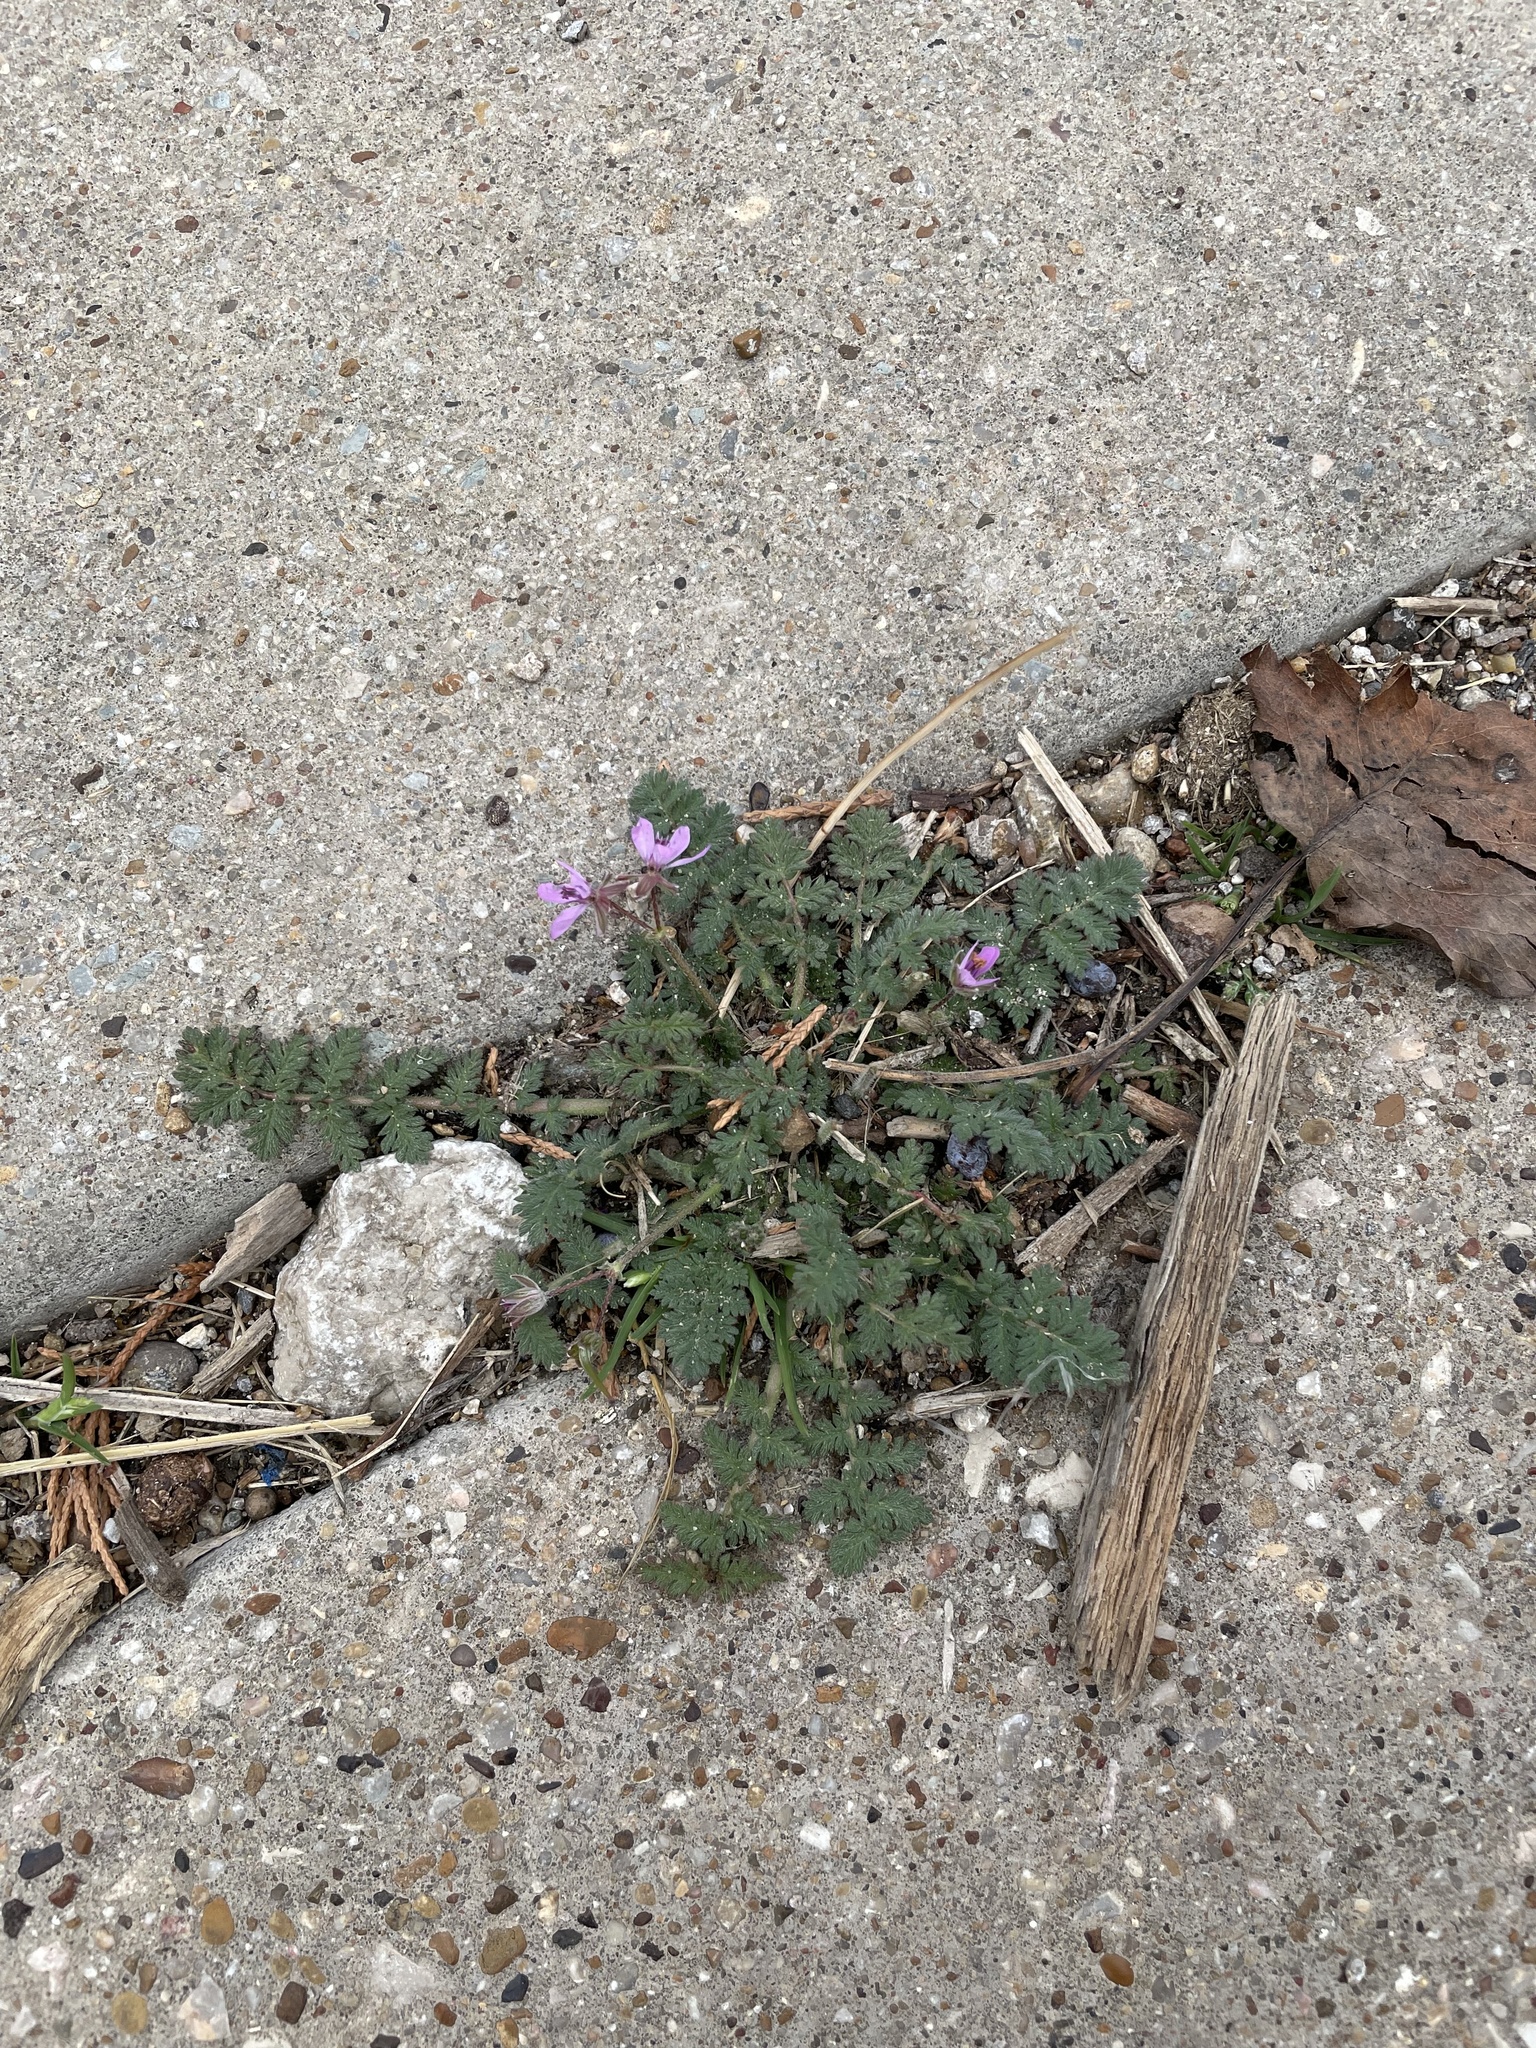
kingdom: Plantae
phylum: Tracheophyta
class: Magnoliopsida
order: Geraniales
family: Geraniaceae
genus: Erodium
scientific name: Erodium cicutarium
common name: Common stork's-bill
